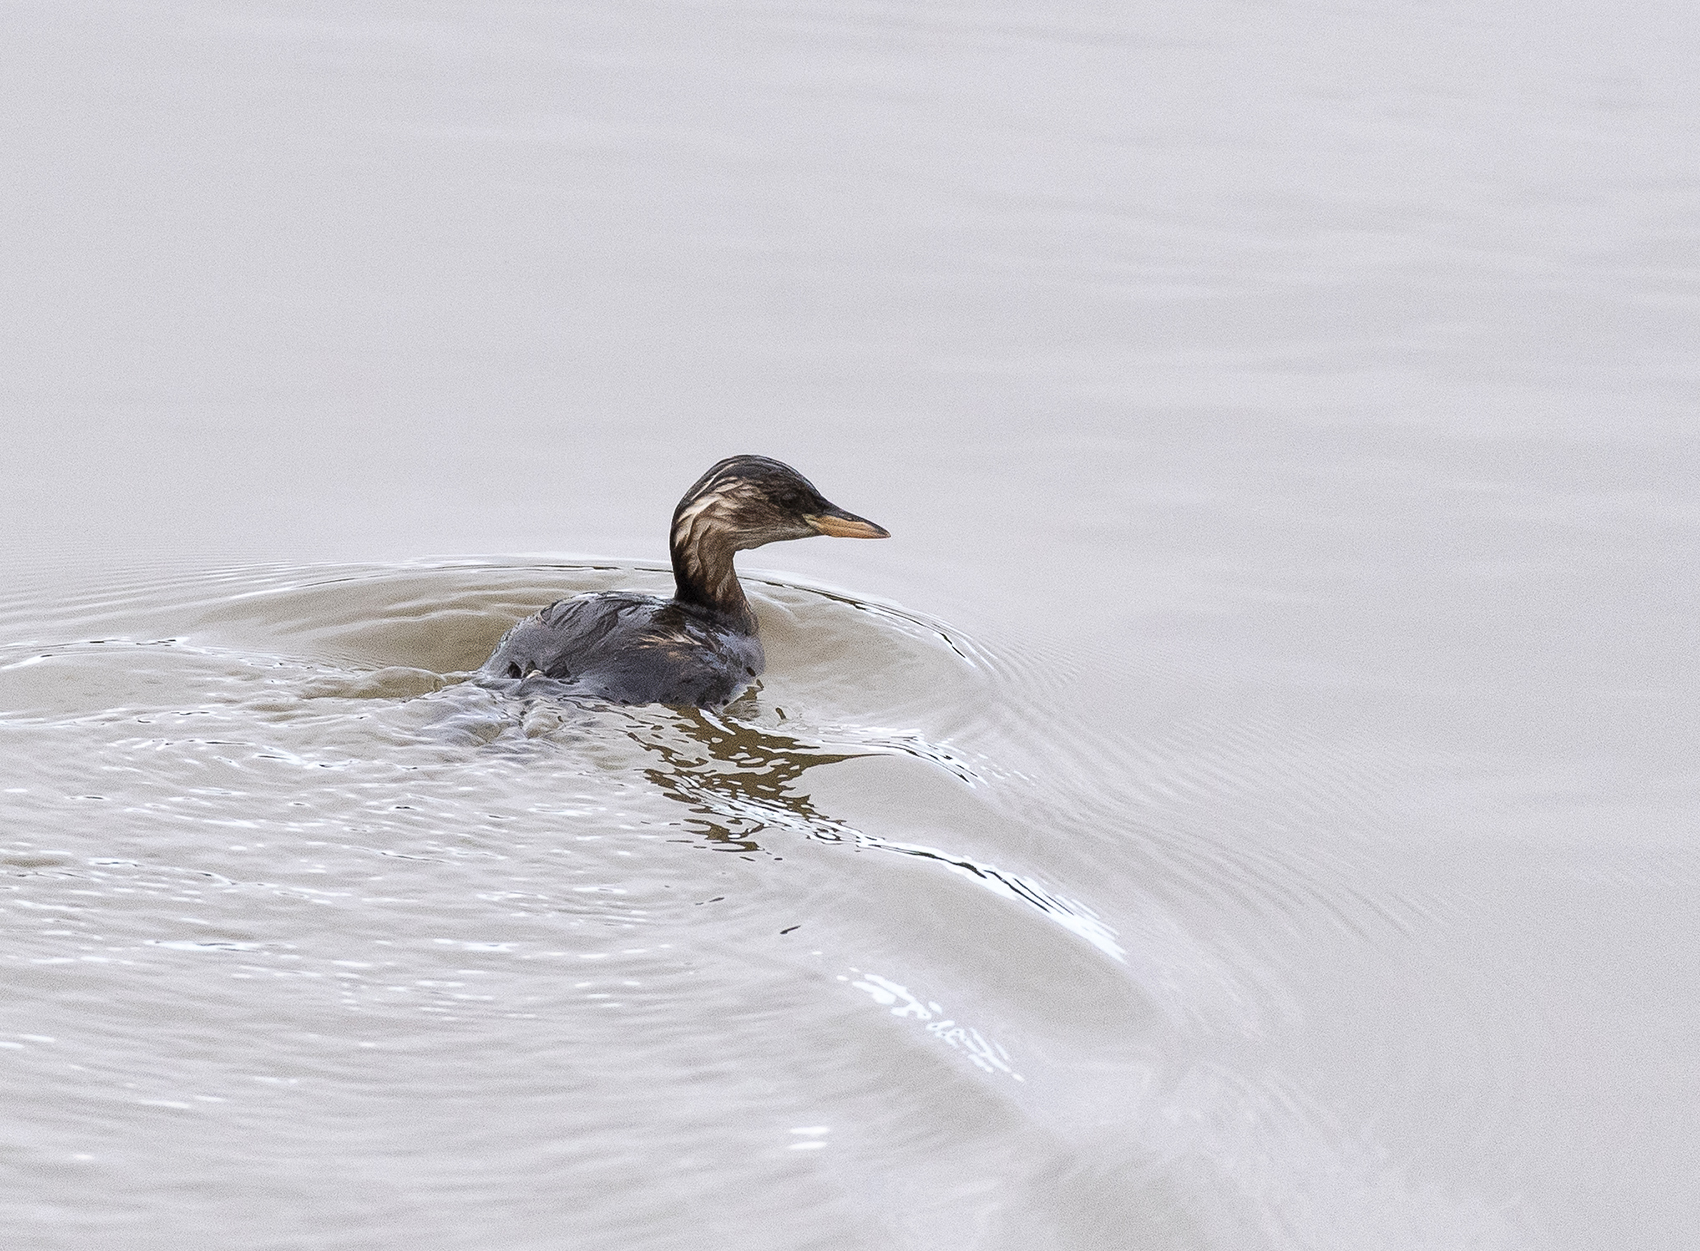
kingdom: Animalia
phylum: Chordata
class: Aves
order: Podicipediformes
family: Podicipedidae
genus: Tachybaptus
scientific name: Tachybaptus ruficollis
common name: Little grebe
